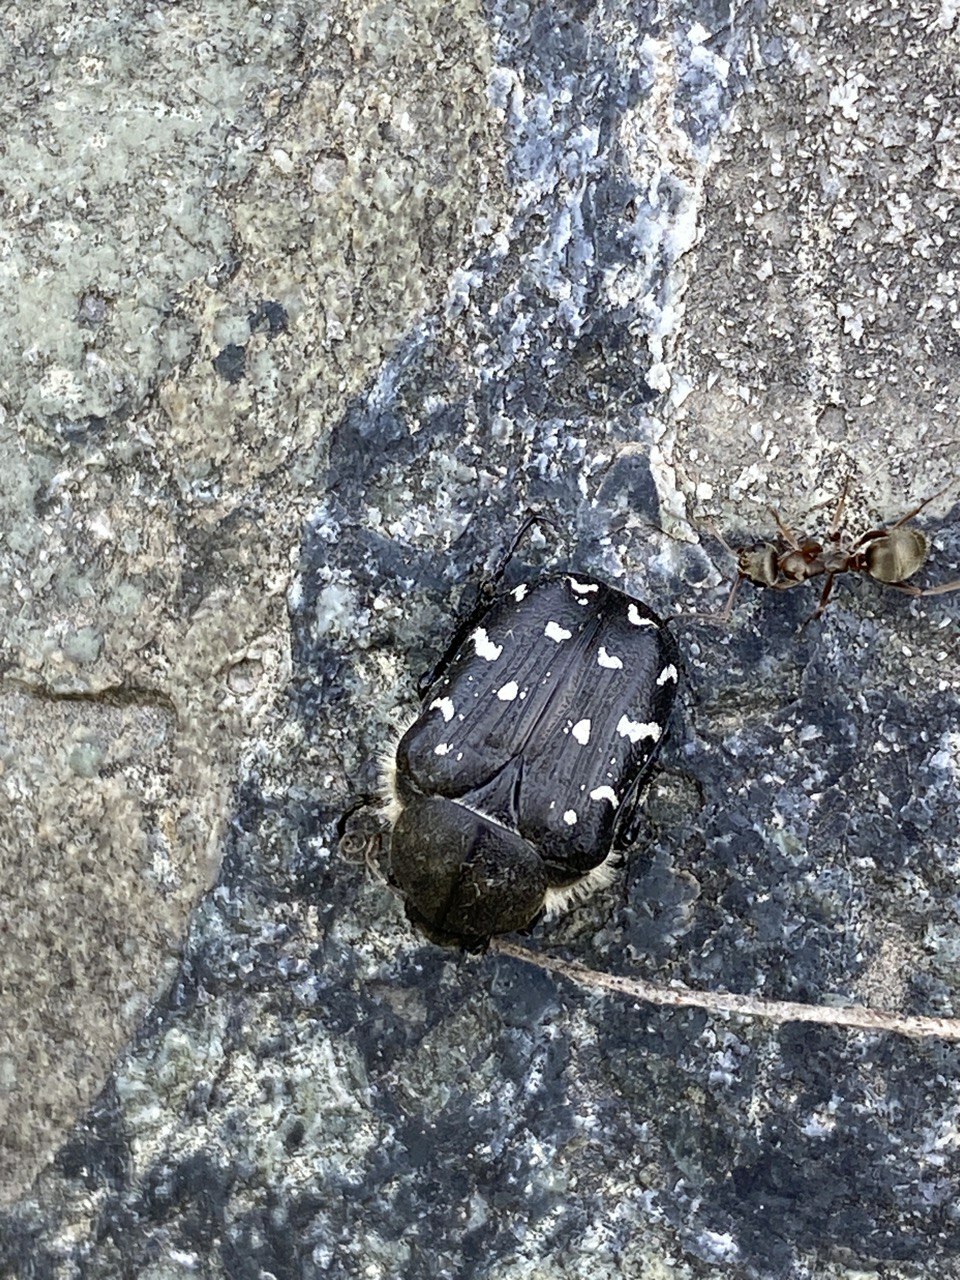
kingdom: Animalia
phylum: Arthropoda
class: Insecta
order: Coleoptera
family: Scarabaeidae
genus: Tropinota
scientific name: Tropinota hirta
